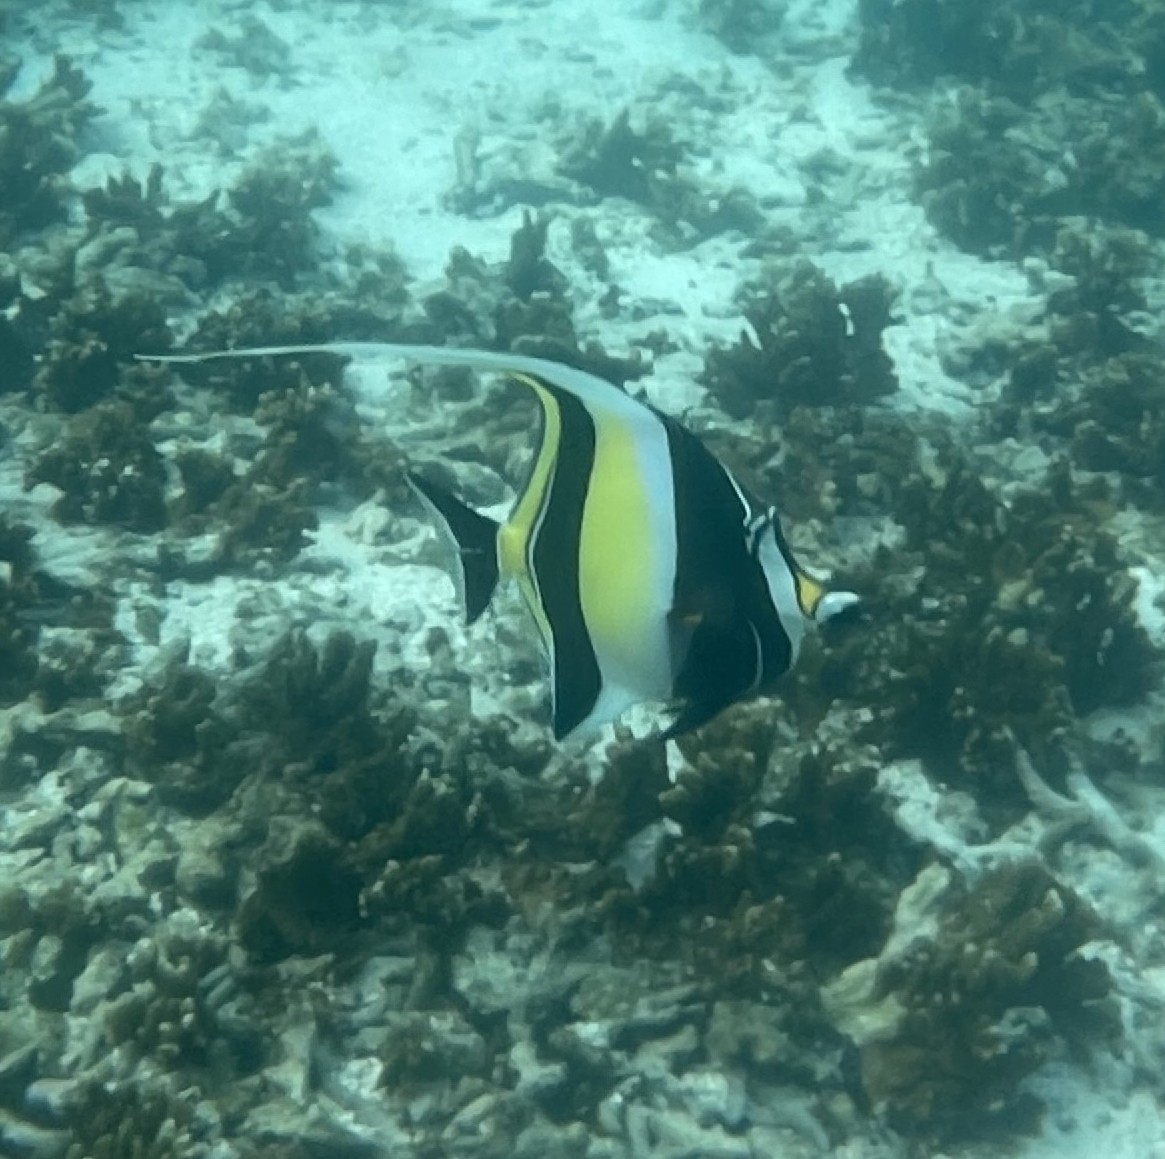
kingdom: Animalia
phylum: Chordata
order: Perciformes
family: Zanclidae
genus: Zanclus
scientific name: Zanclus cornutus
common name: Moorish idol
